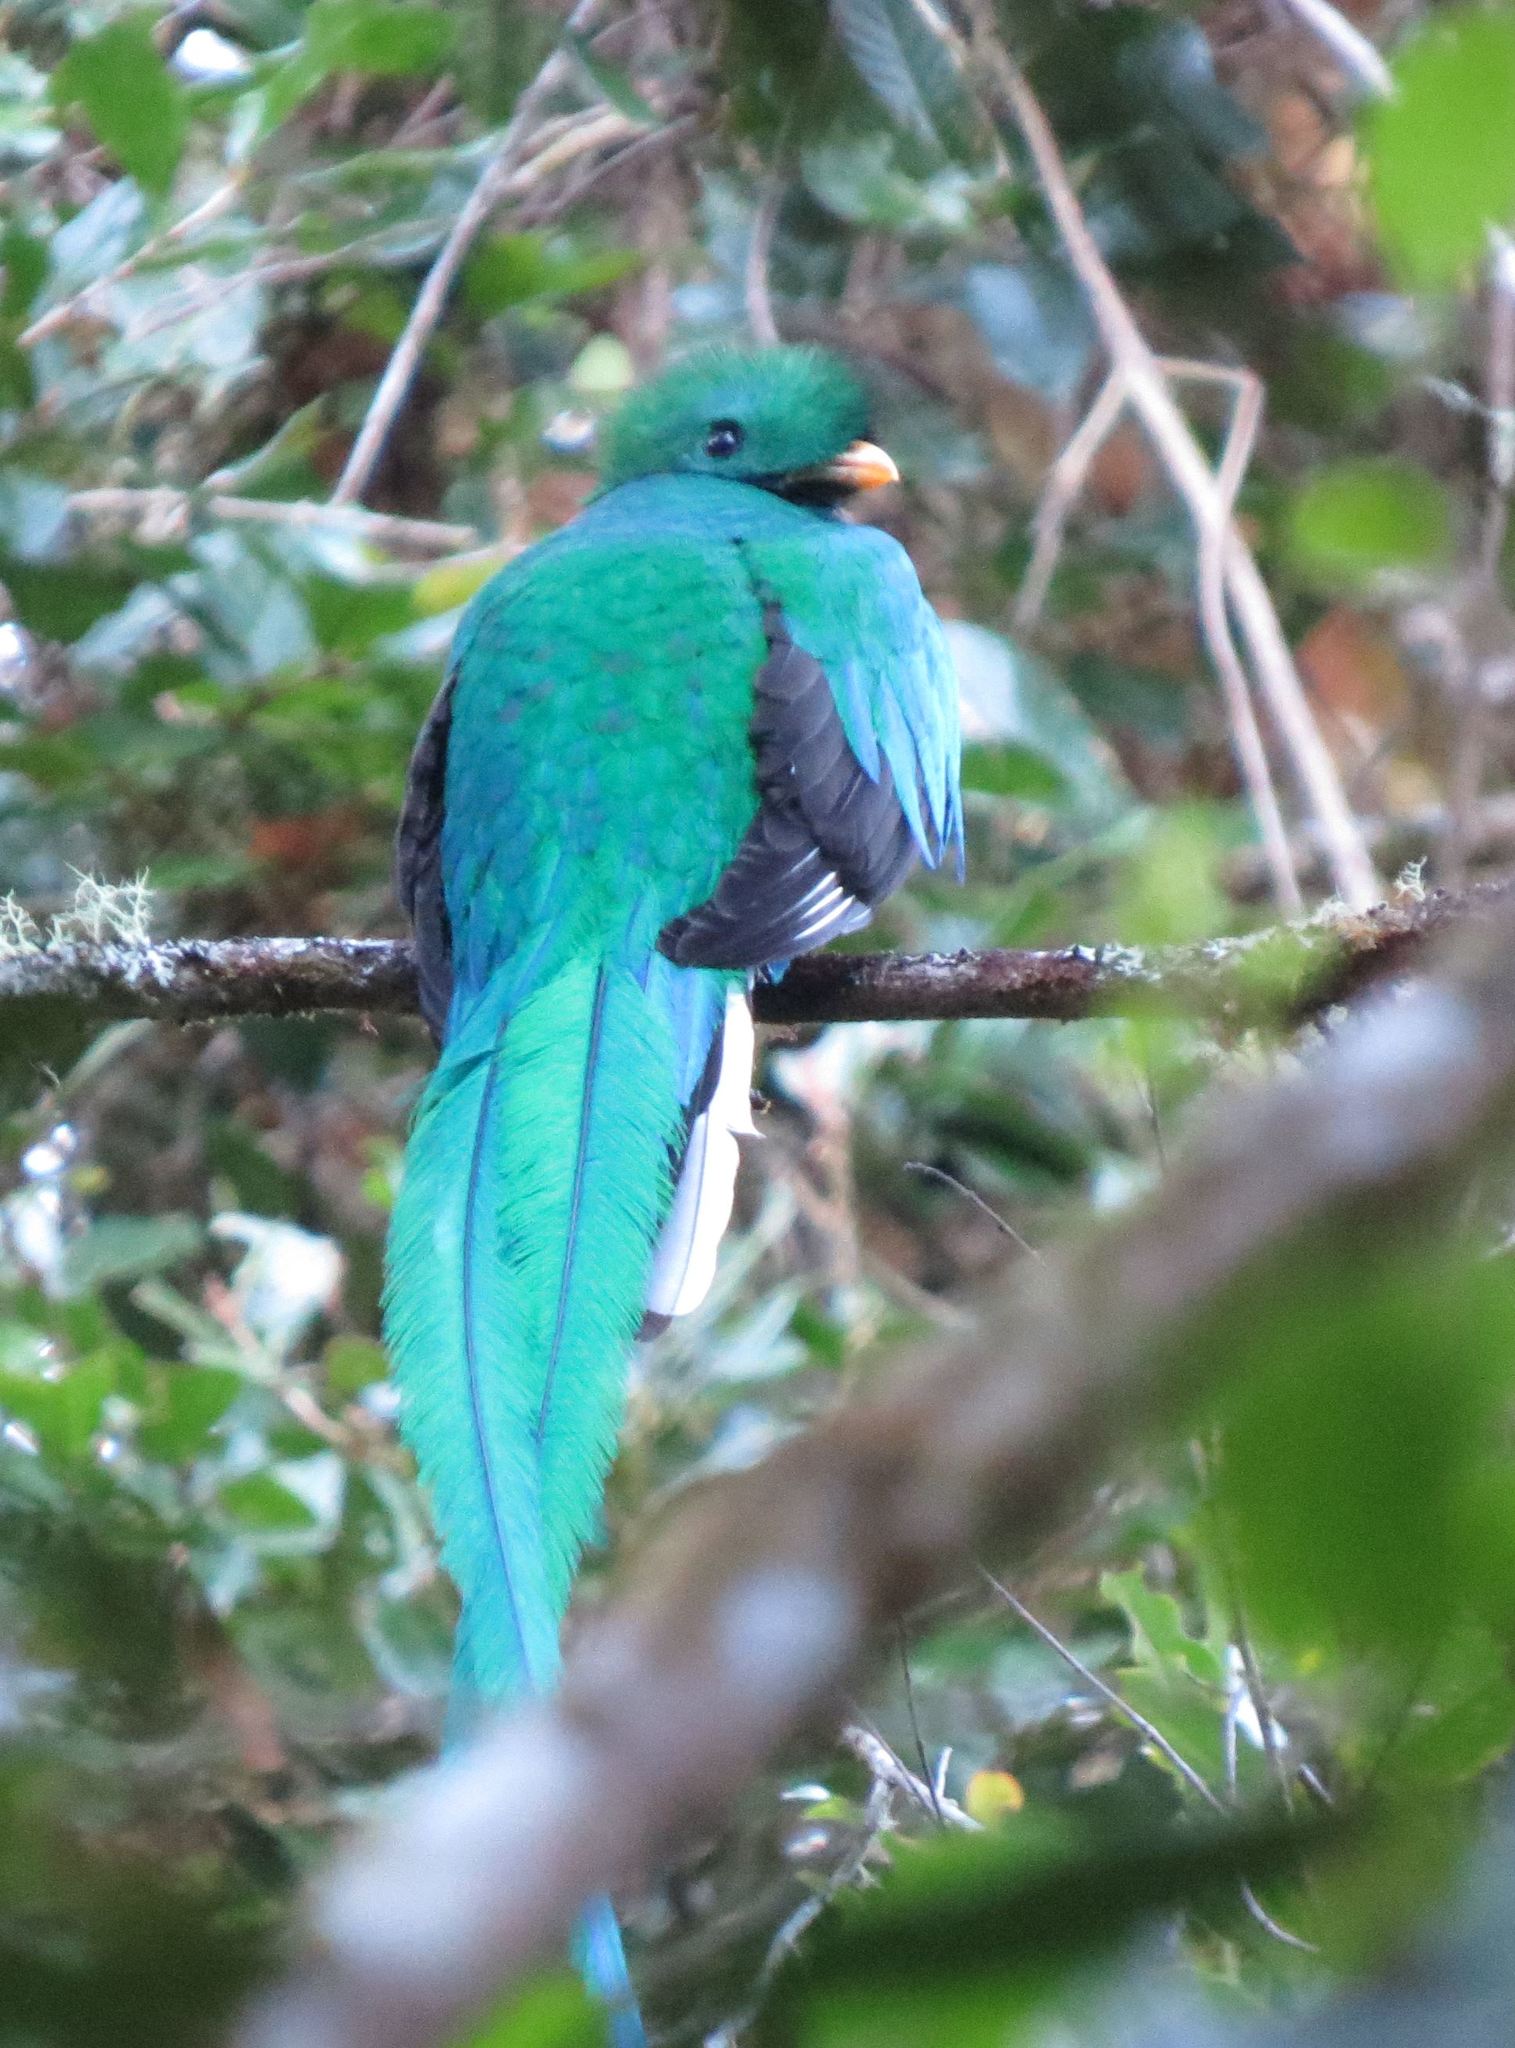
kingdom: Animalia
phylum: Chordata
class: Aves
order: Trogoniformes
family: Trogonidae
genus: Pharomachrus
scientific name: Pharomachrus mocinno
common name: Resplendent quetzal
